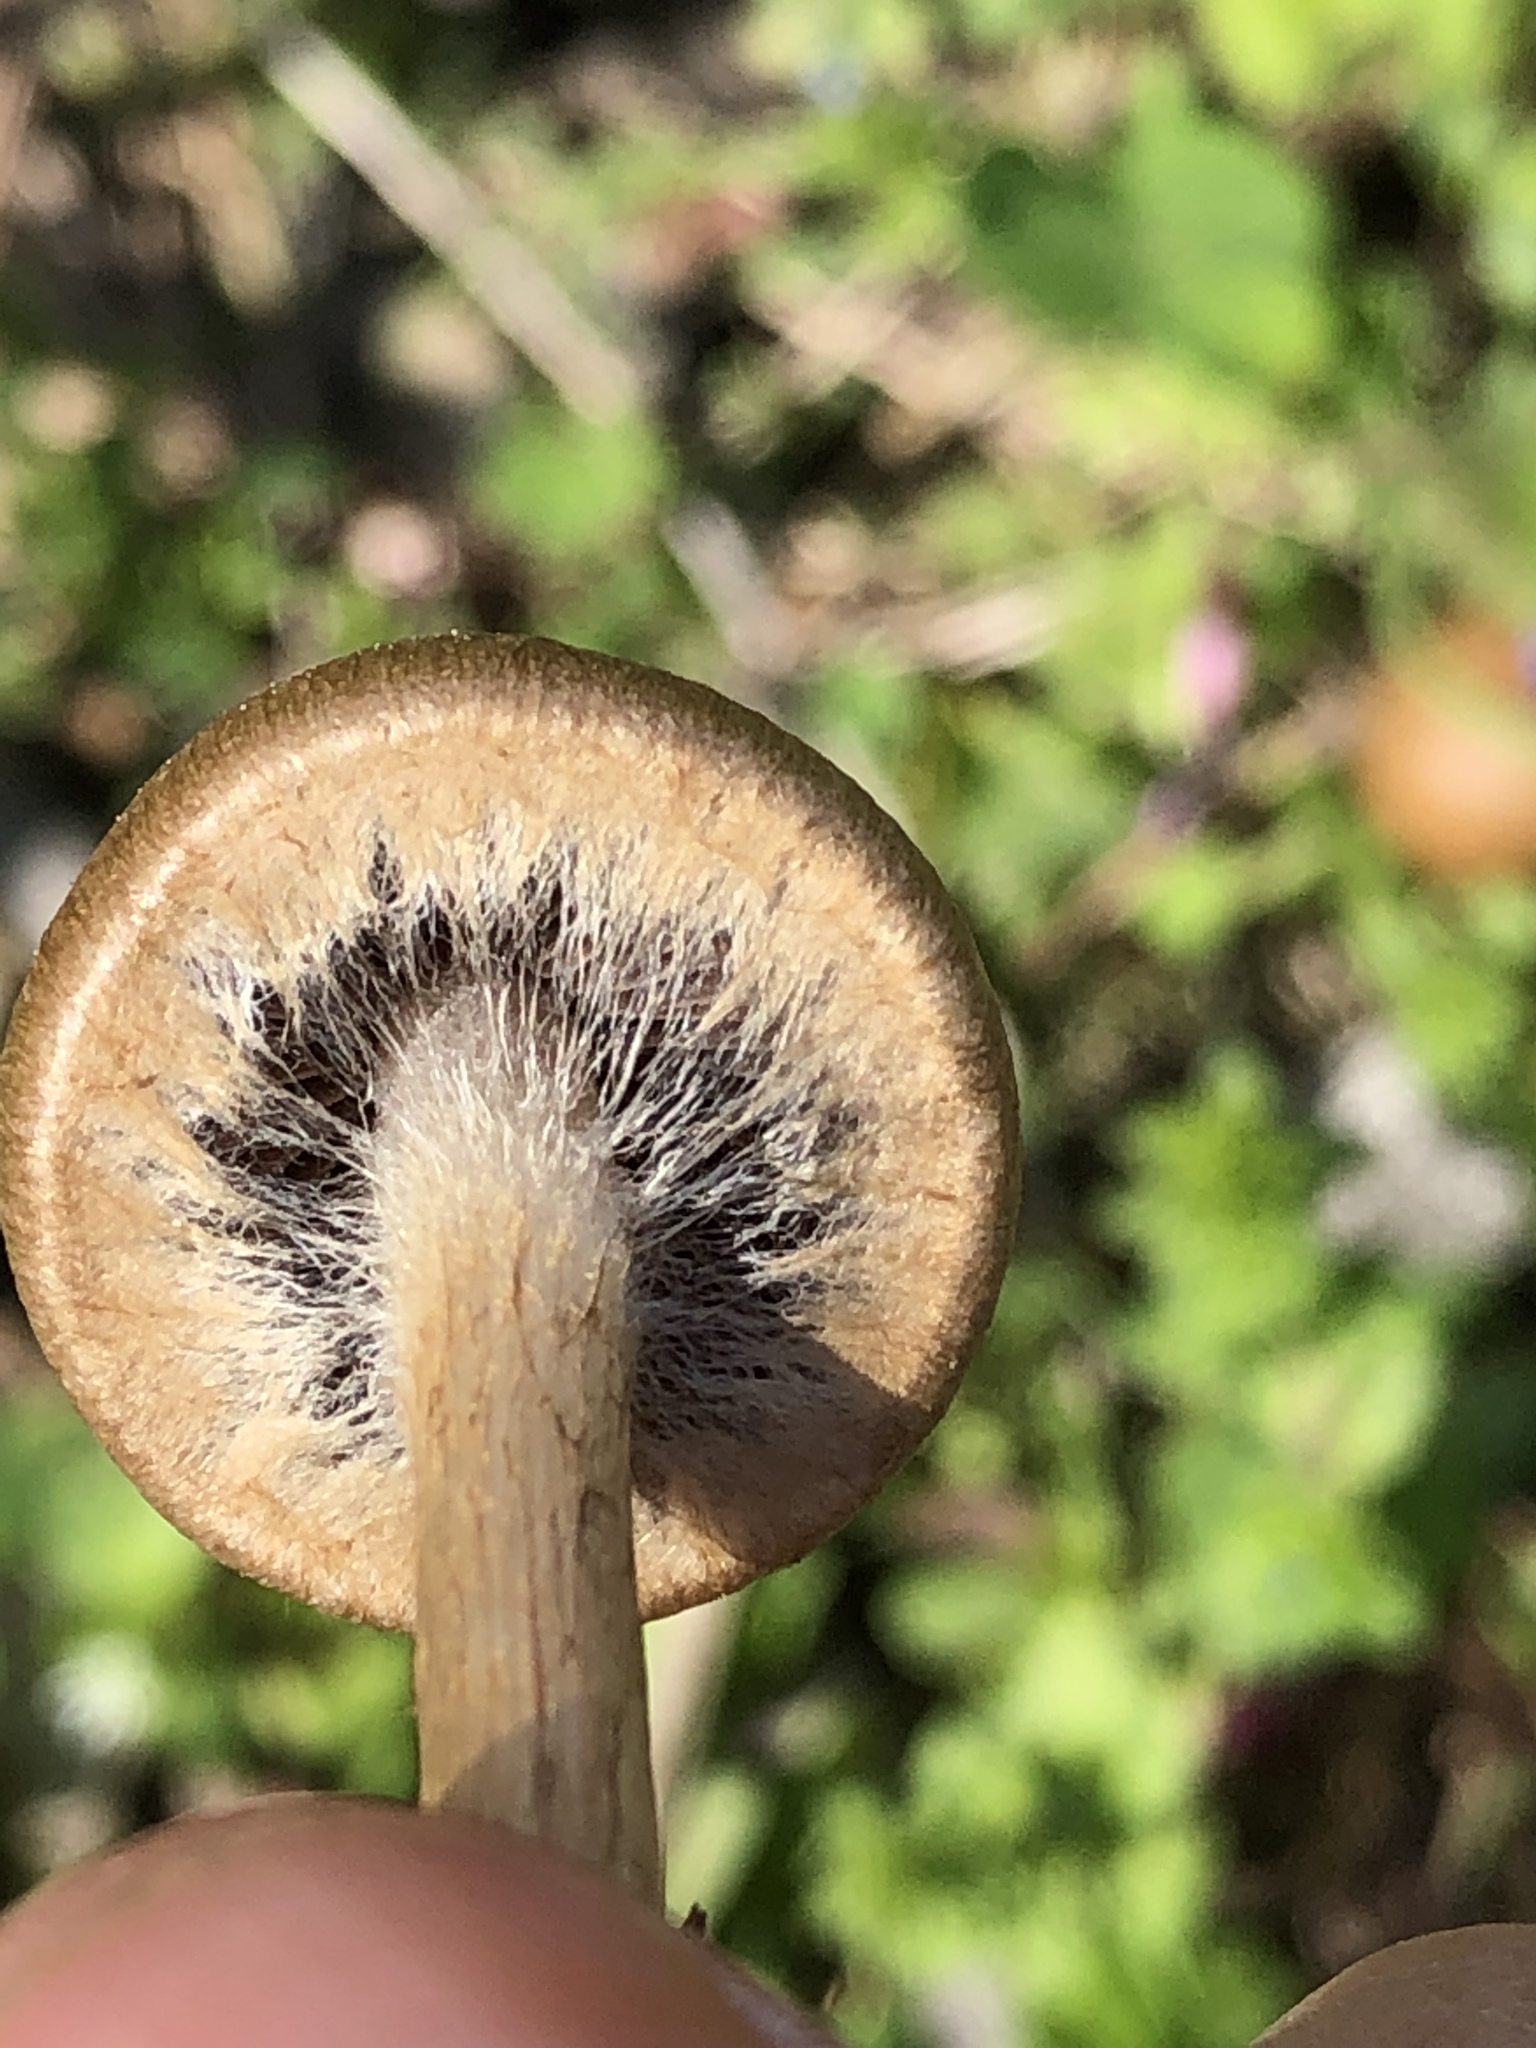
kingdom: Fungi
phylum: Basidiomycota
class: Agaricomycetes
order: Agaricales
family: Psathyrellaceae
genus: Lacrymaria
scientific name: Lacrymaria lacrymabunda
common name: Weeping widow
